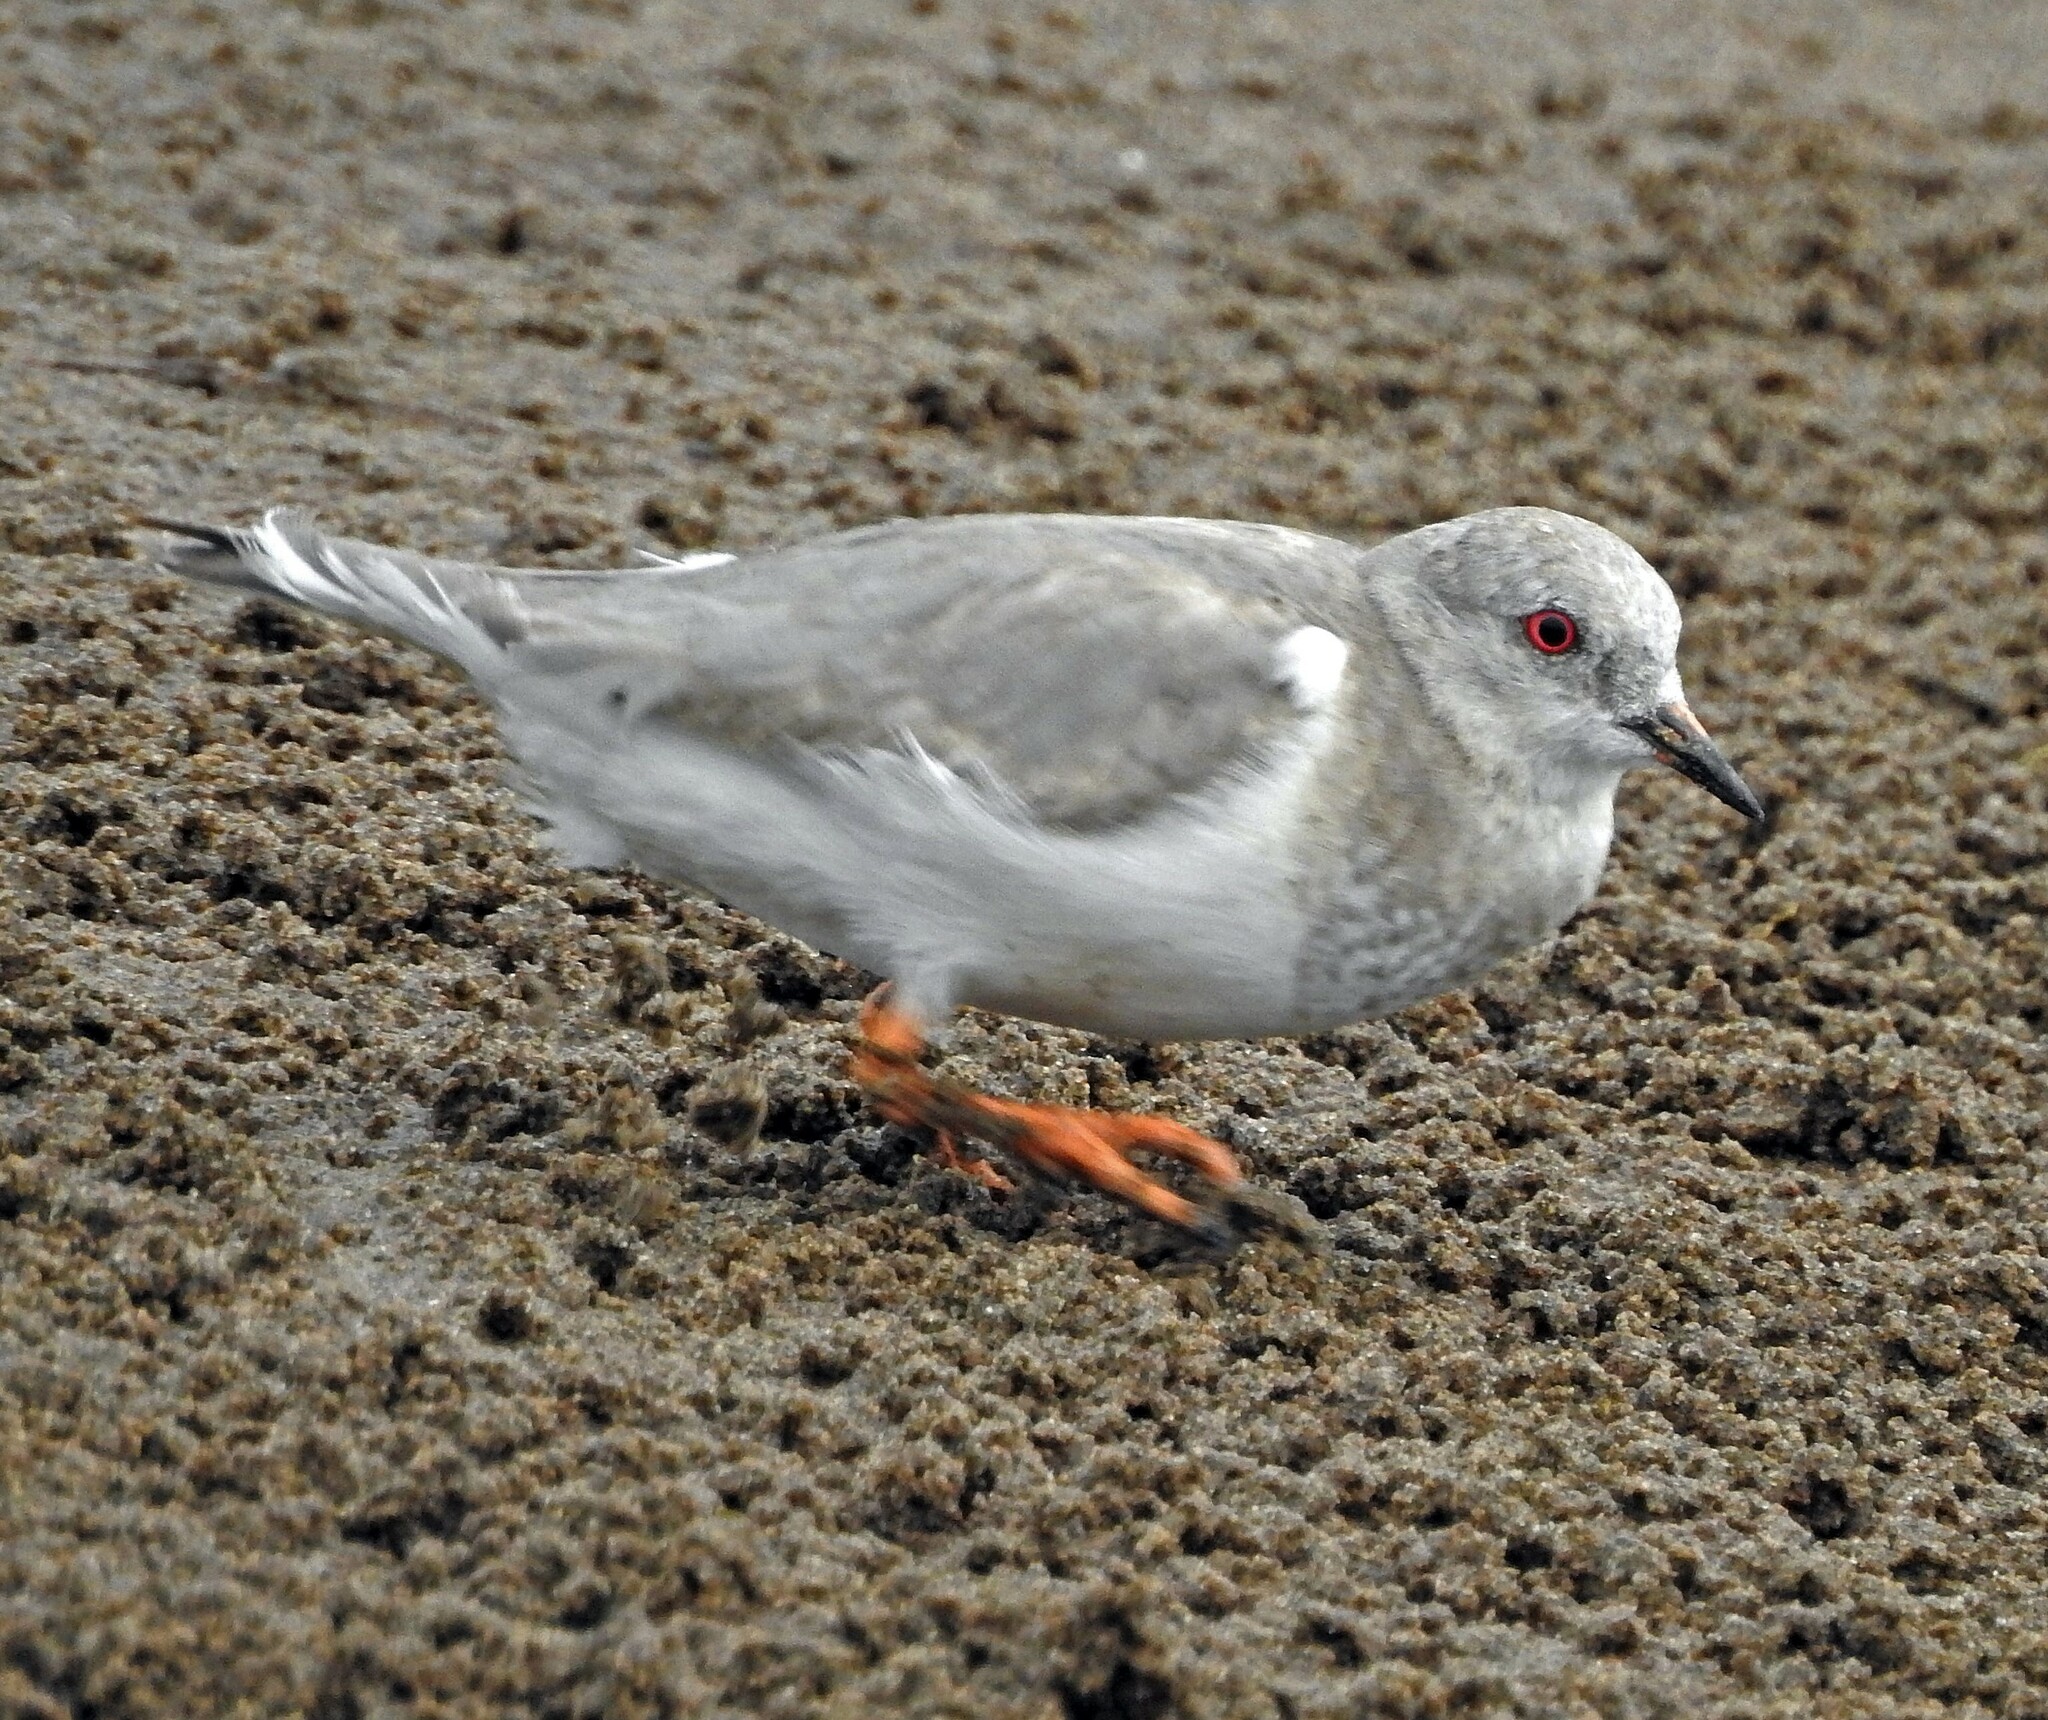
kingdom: Animalia
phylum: Chordata
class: Aves
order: Charadriiformes
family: Pluvianellidae
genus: Pluvianellus
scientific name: Pluvianellus socialis
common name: Magellanic plover
